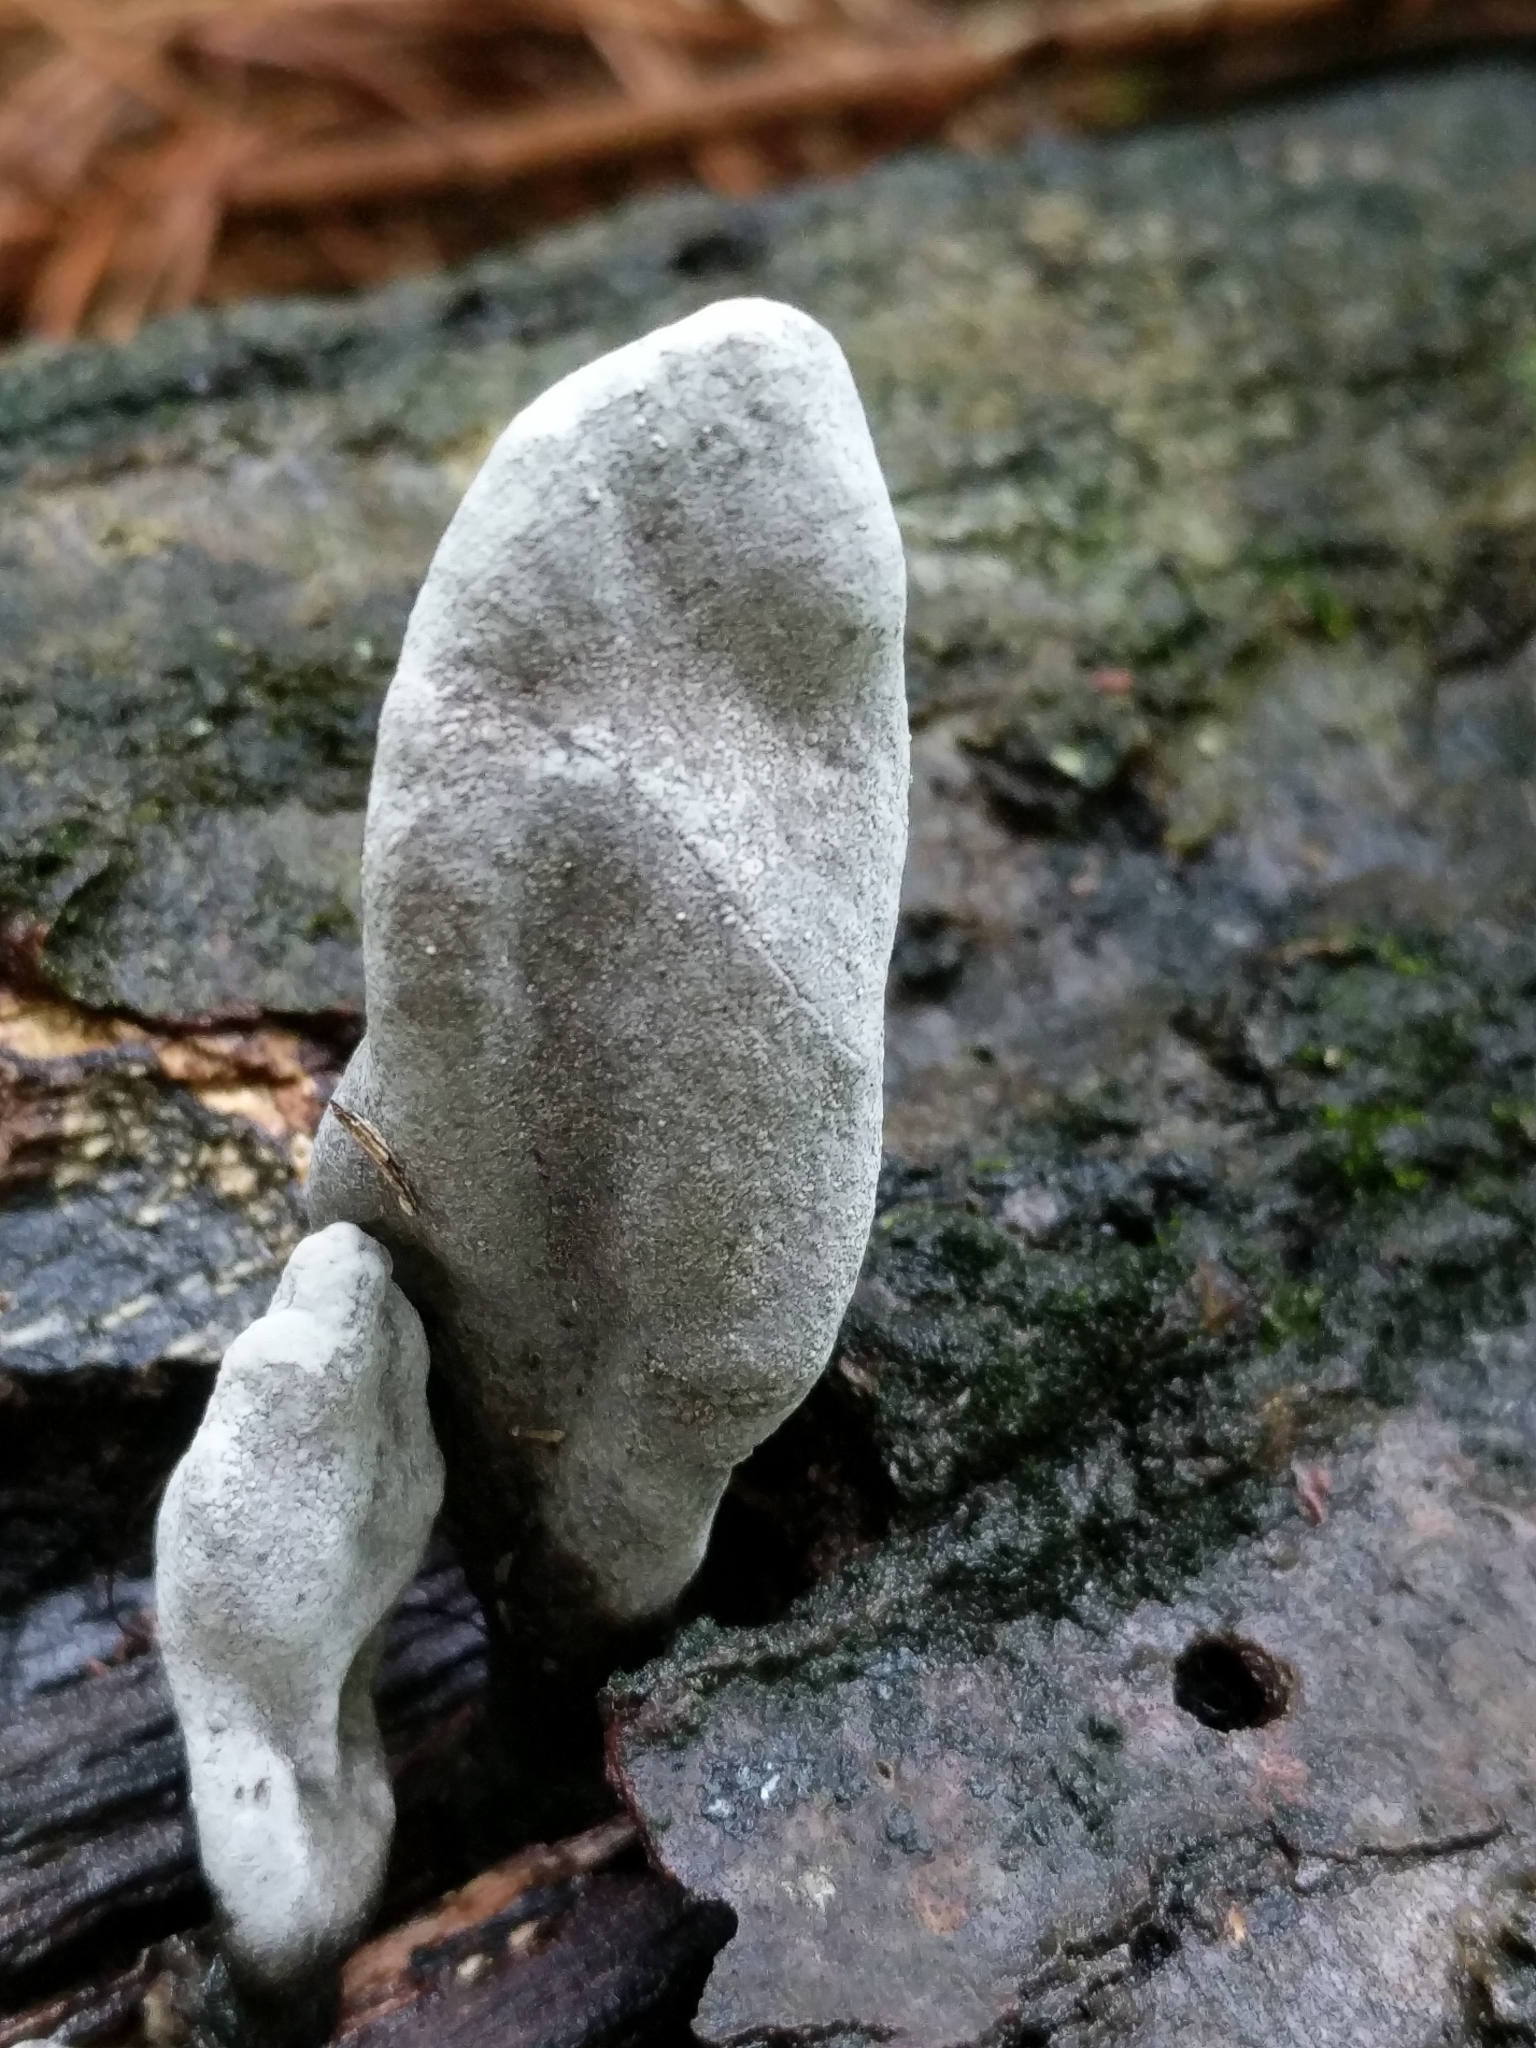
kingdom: Fungi
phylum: Ascomycota
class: Sordariomycetes
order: Xylariales
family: Xylariaceae
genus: Xylaria
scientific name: Xylaria polymorpha
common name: Dead man's fingers
